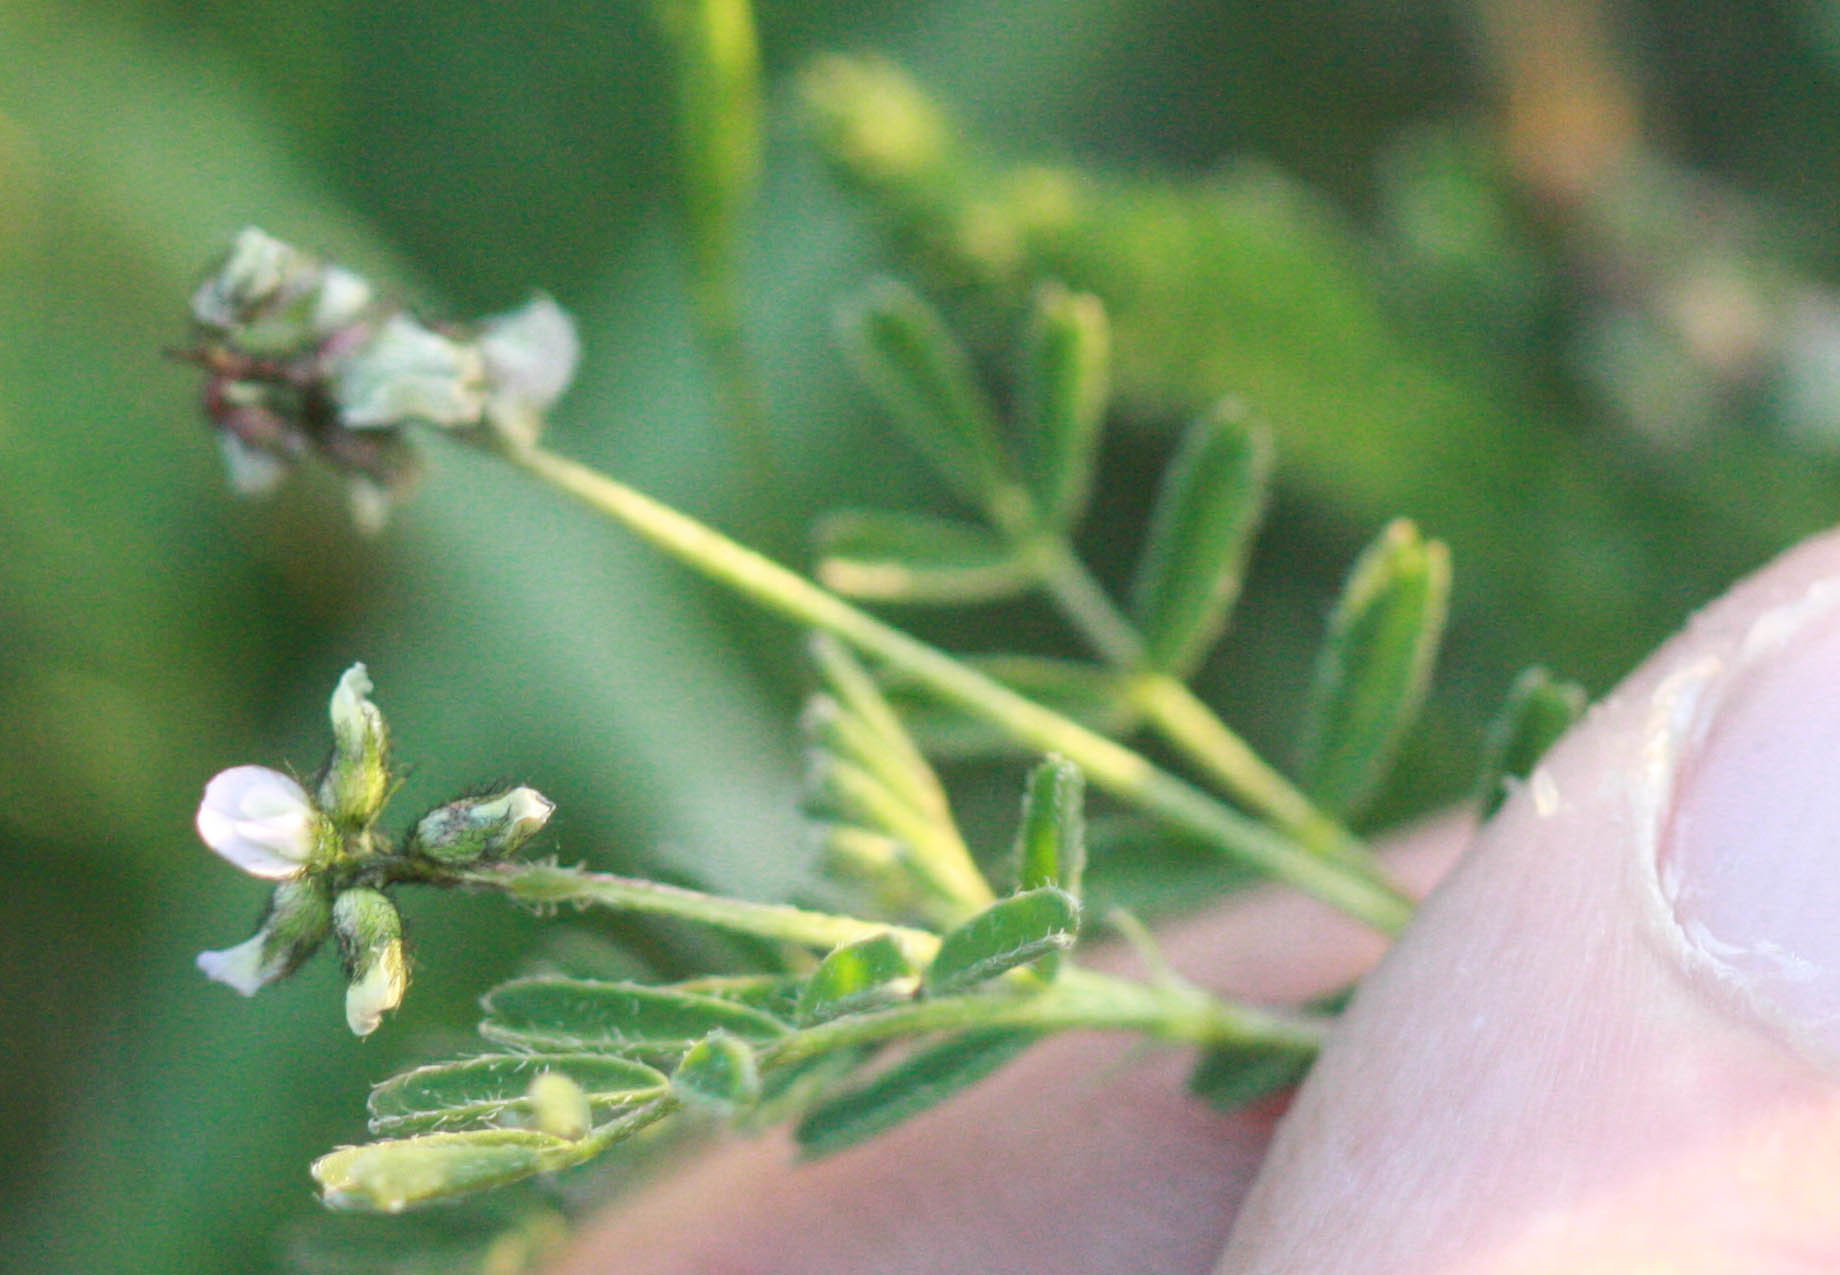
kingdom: Plantae
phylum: Tracheophyta
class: Magnoliopsida
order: Fabales
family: Fabaceae
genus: Astragalus
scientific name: Astragalus gambelianus
